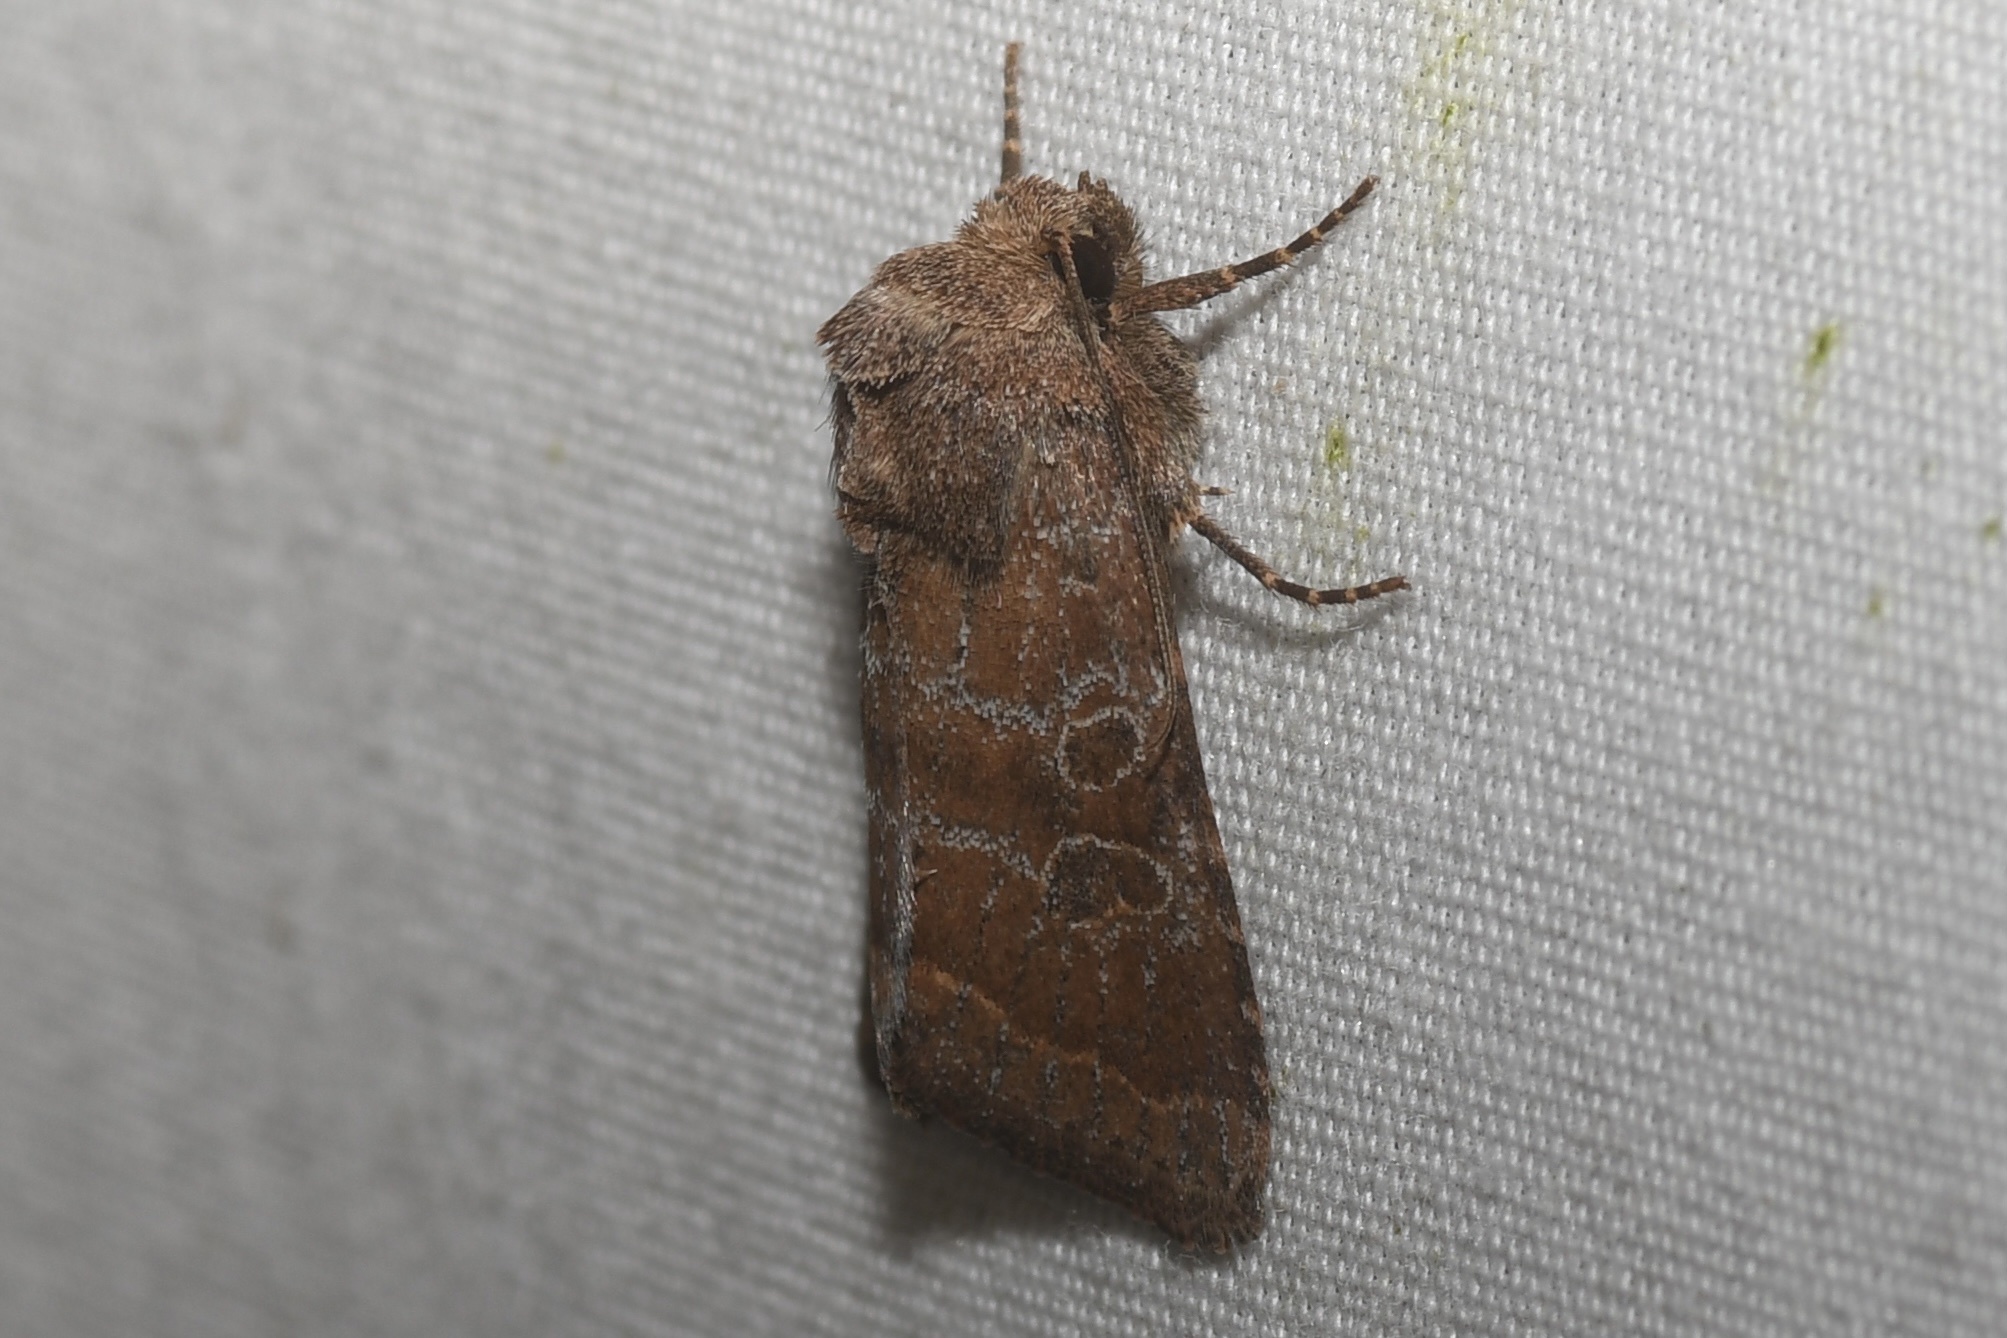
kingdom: Animalia
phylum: Arthropoda
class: Insecta
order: Lepidoptera
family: Noctuidae
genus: Orthodes
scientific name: Orthodes majuscula
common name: Rustic quaker
